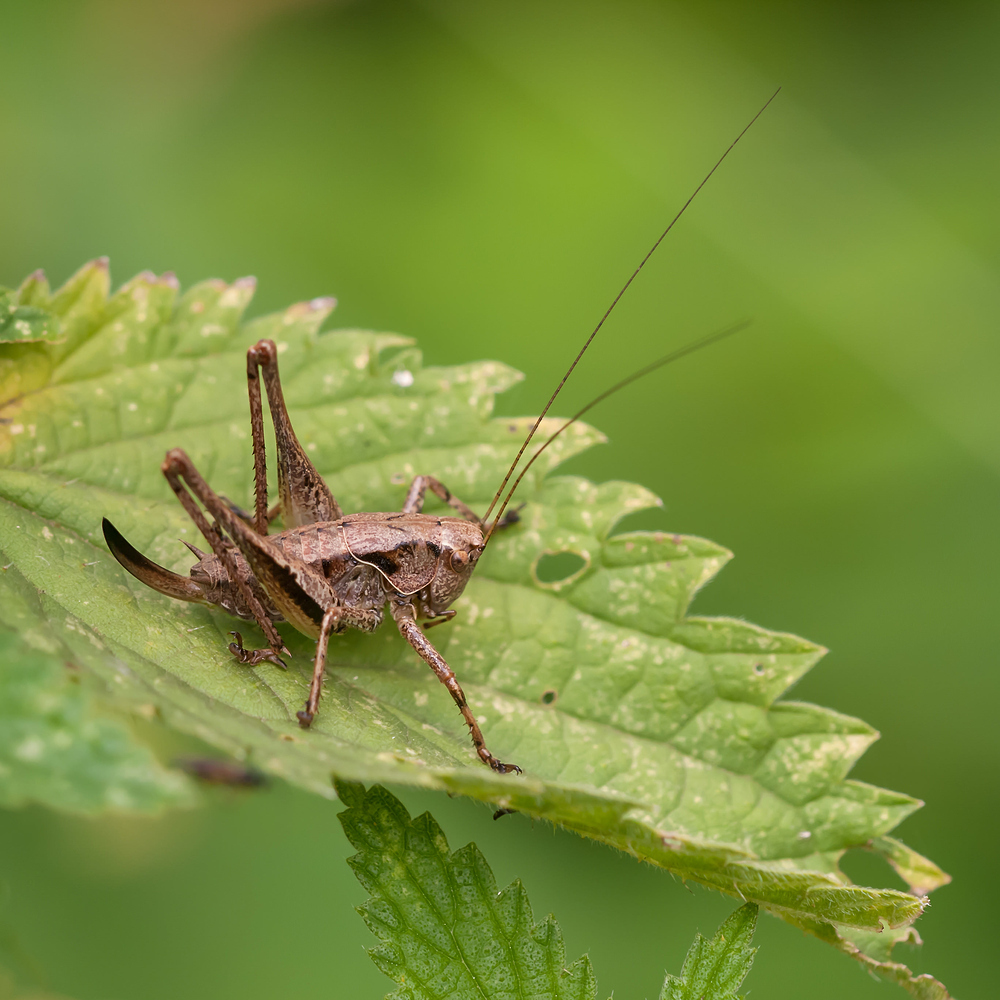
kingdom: Animalia
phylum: Arthropoda
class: Insecta
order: Orthoptera
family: Tettigoniidae
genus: Pholidoptera
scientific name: Pholidoptera griseoaptera
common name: Dark bush-cricket
